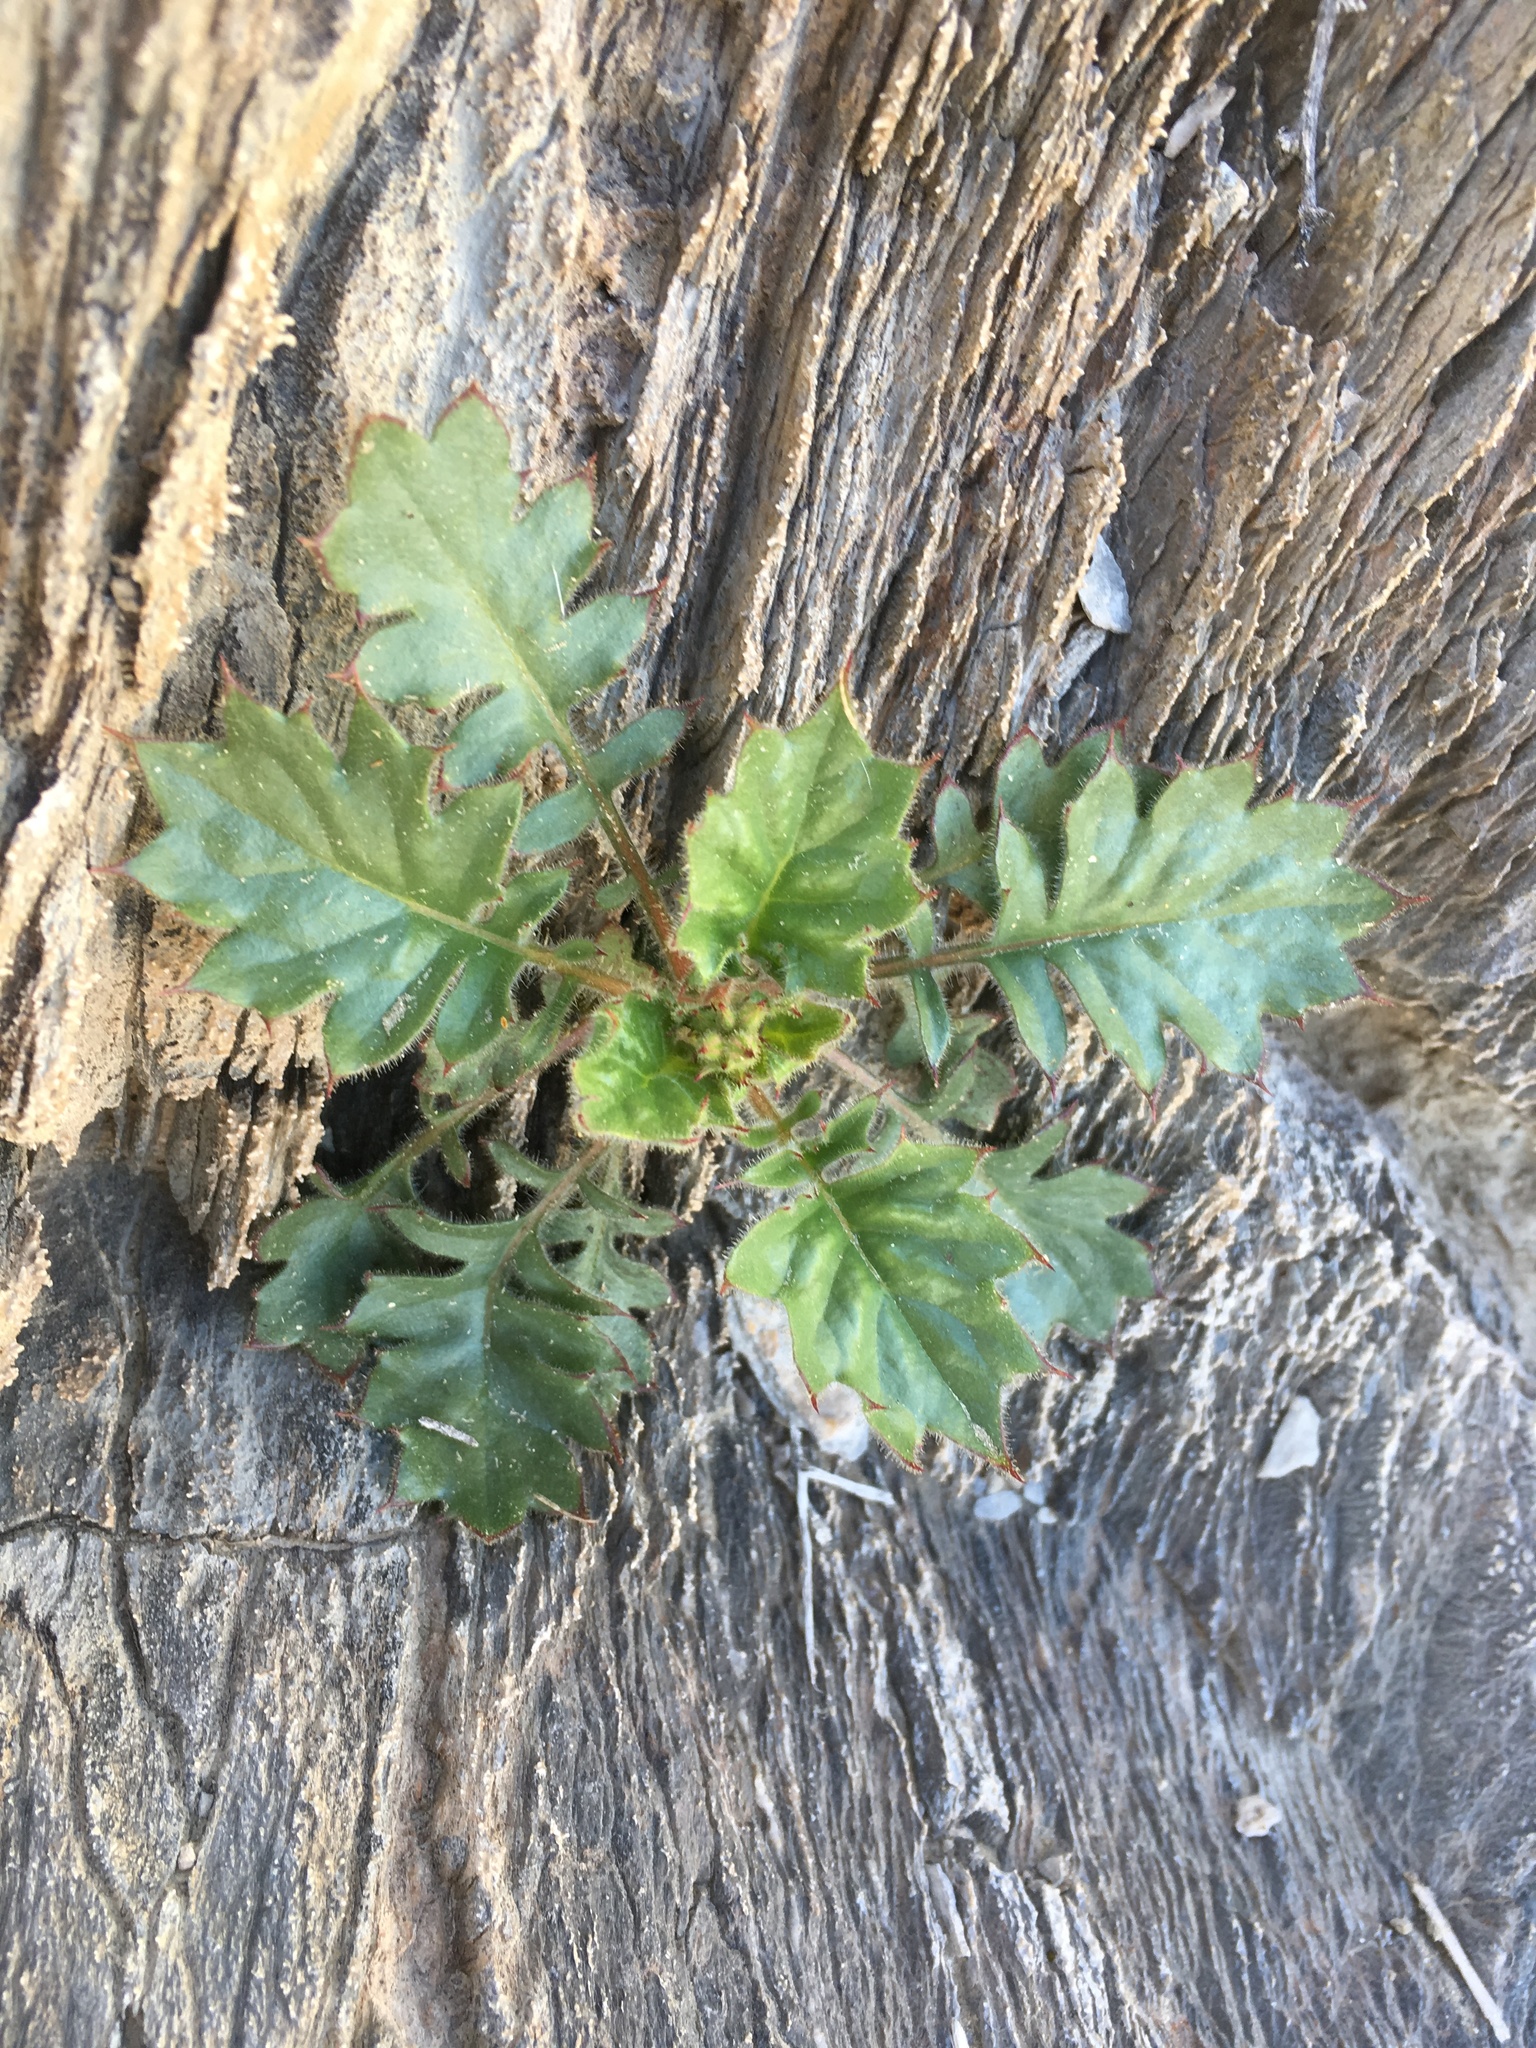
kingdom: Plantae
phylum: Tracheophyta
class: Magnoliopsida
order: Ericales
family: Polemoniaceae
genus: Aliciella
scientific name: Aliciella latifolia
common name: Broad-leaf gilia
